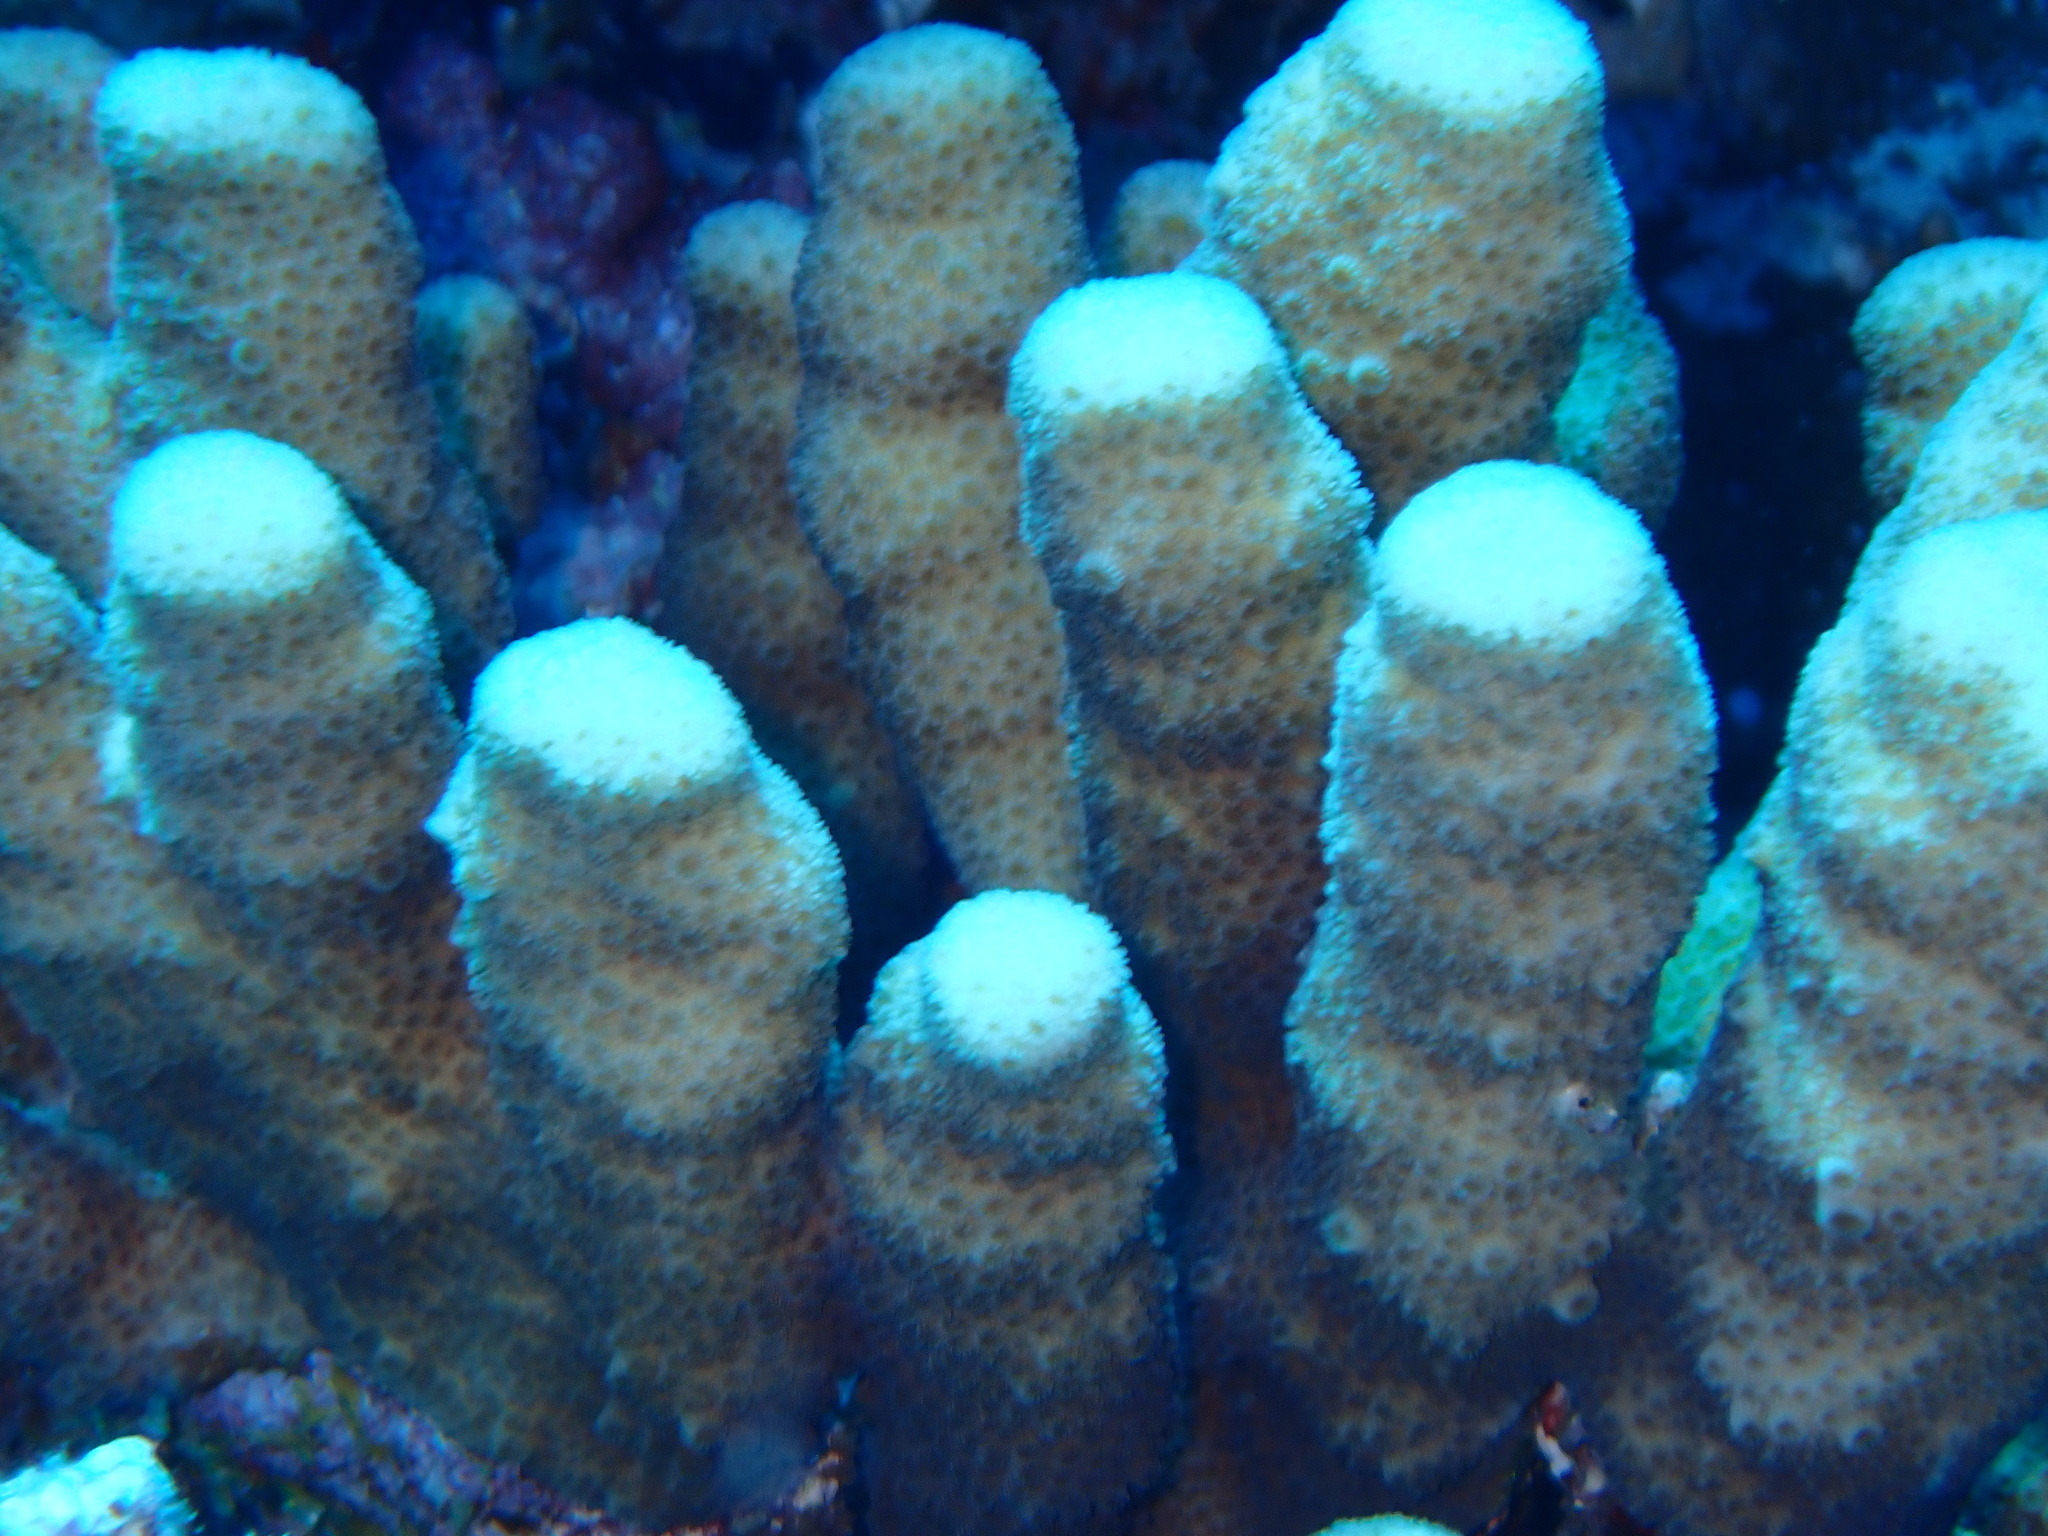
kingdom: Animalia
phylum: Cnidaria
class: Anthozoa
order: Scleractinia
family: Merulinidae
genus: Goniastrea
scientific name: Goniastrea stelligera
